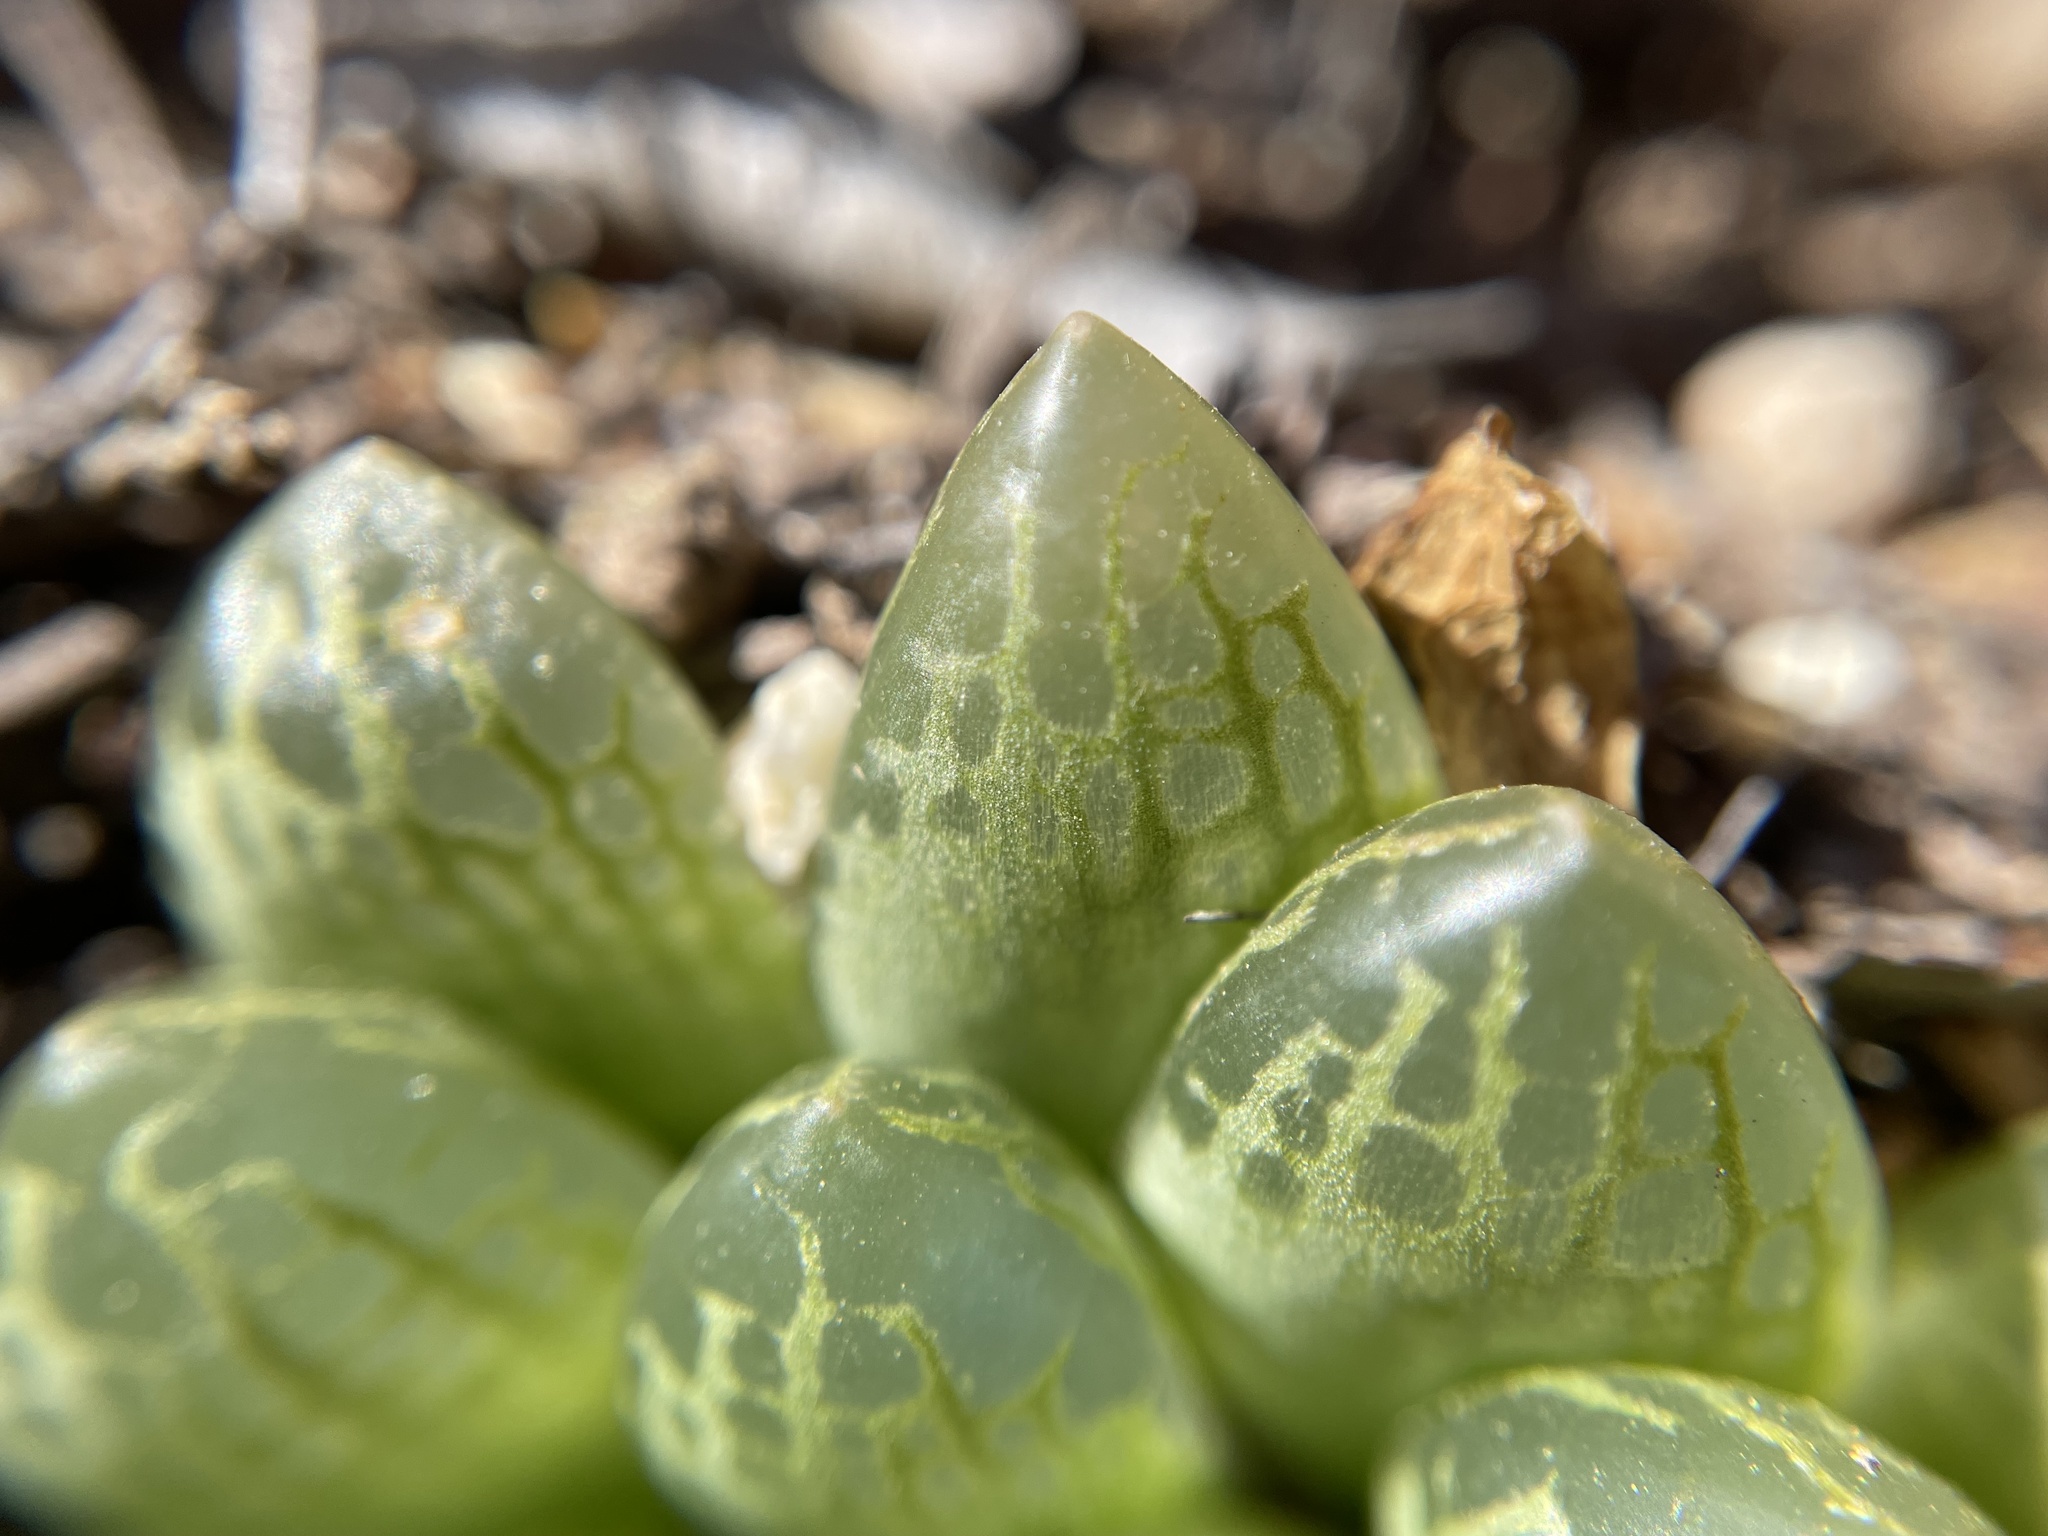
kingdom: Plantae
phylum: Tracheophyta
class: Liliopsida
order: Asparagales
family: Asphodelaceae
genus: Haworthia
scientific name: Haworthia transiens
